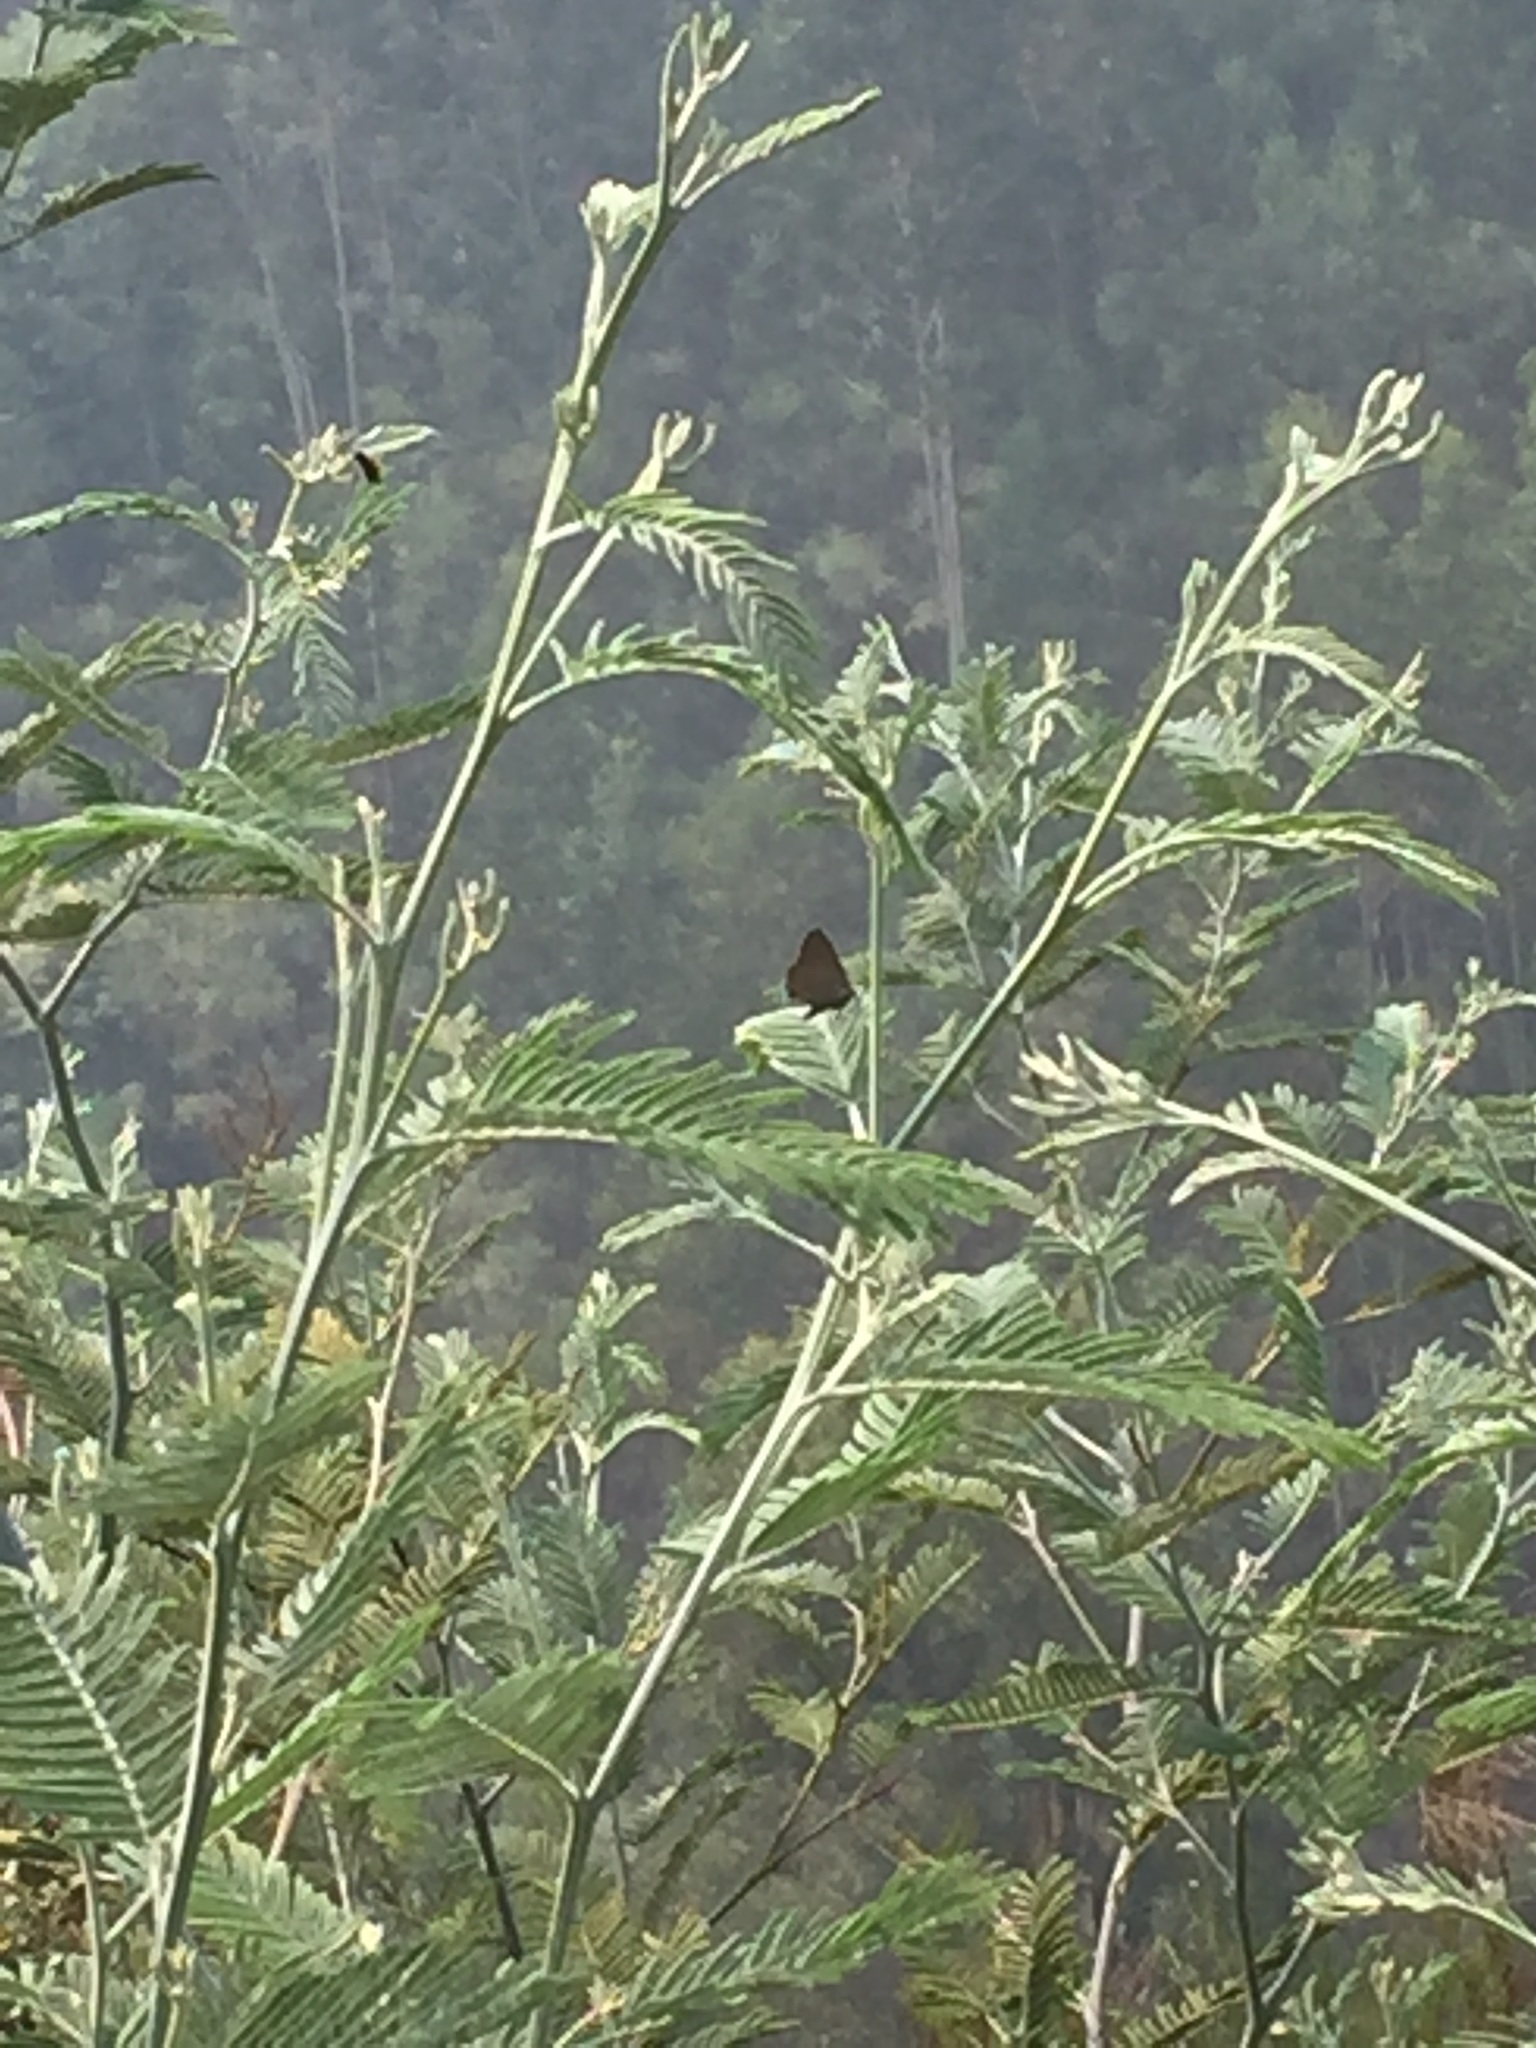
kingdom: Animalia
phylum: Arthropoda
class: Insecta
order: Lepidoptera
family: Lycaenidae
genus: Fixsenia
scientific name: Fixsenia esculi
